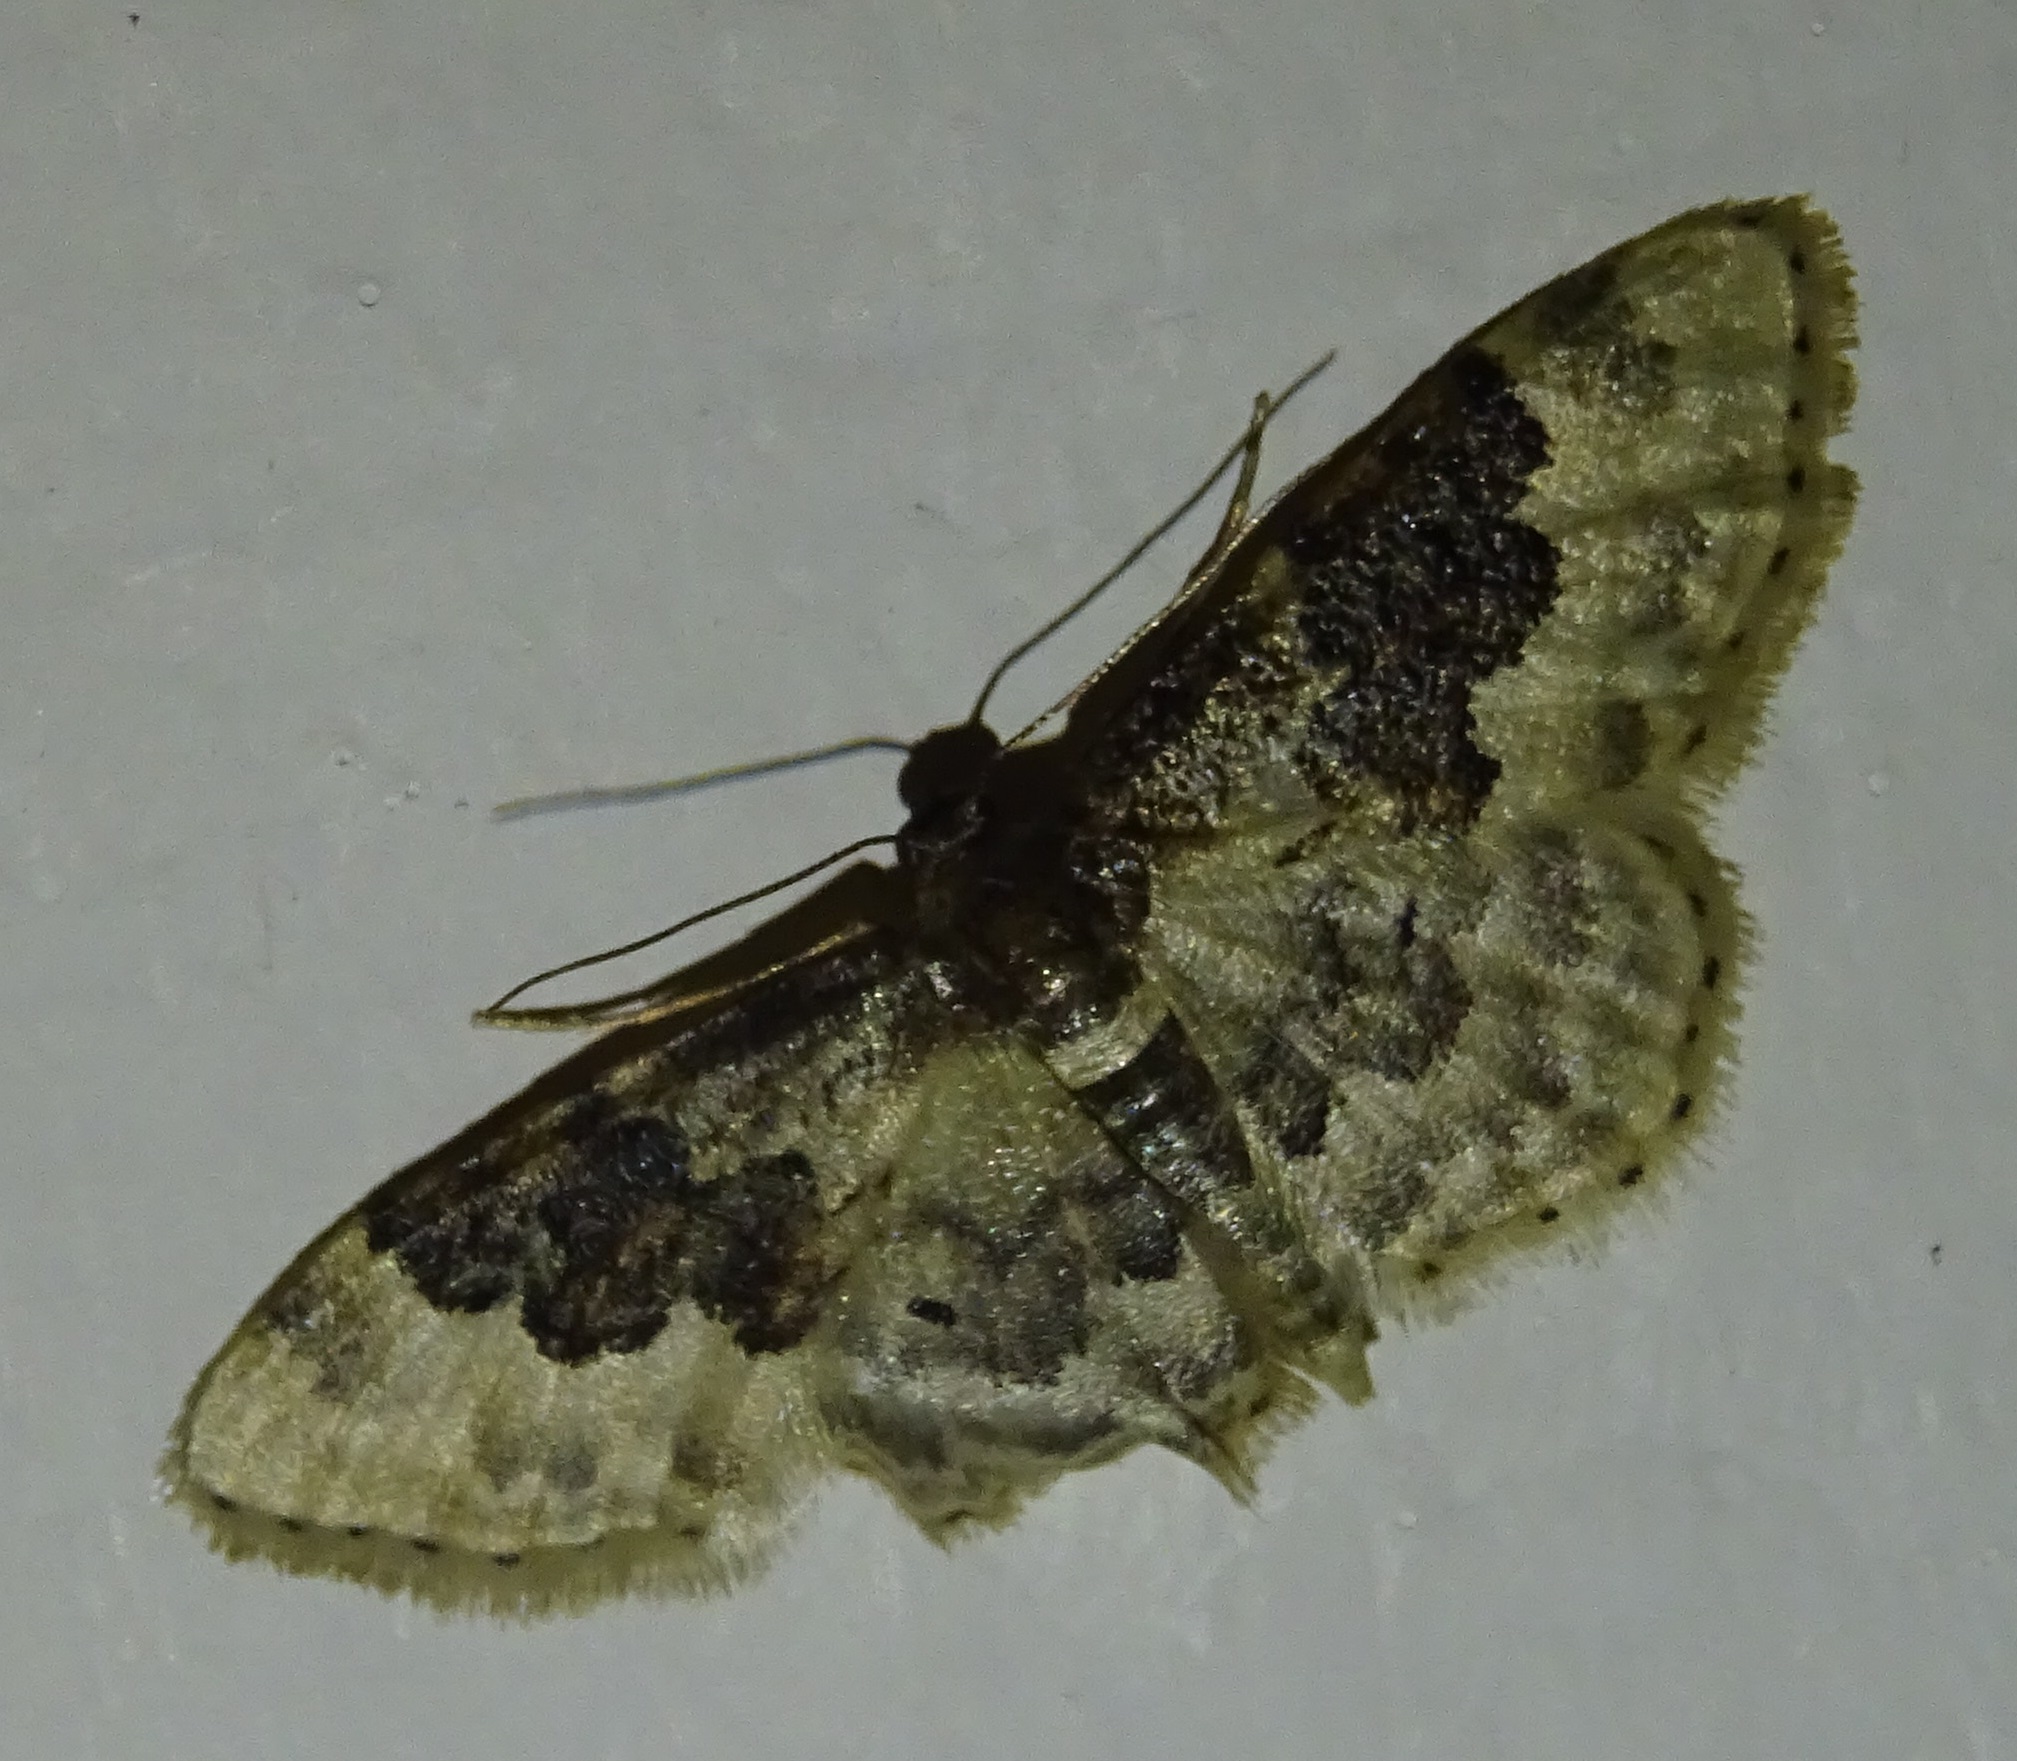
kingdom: Animalia
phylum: Arthropoda
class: Insecta
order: Lepidoptera
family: Geometridae
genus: Idaea
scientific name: Idaea rusticata
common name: Least carpet
